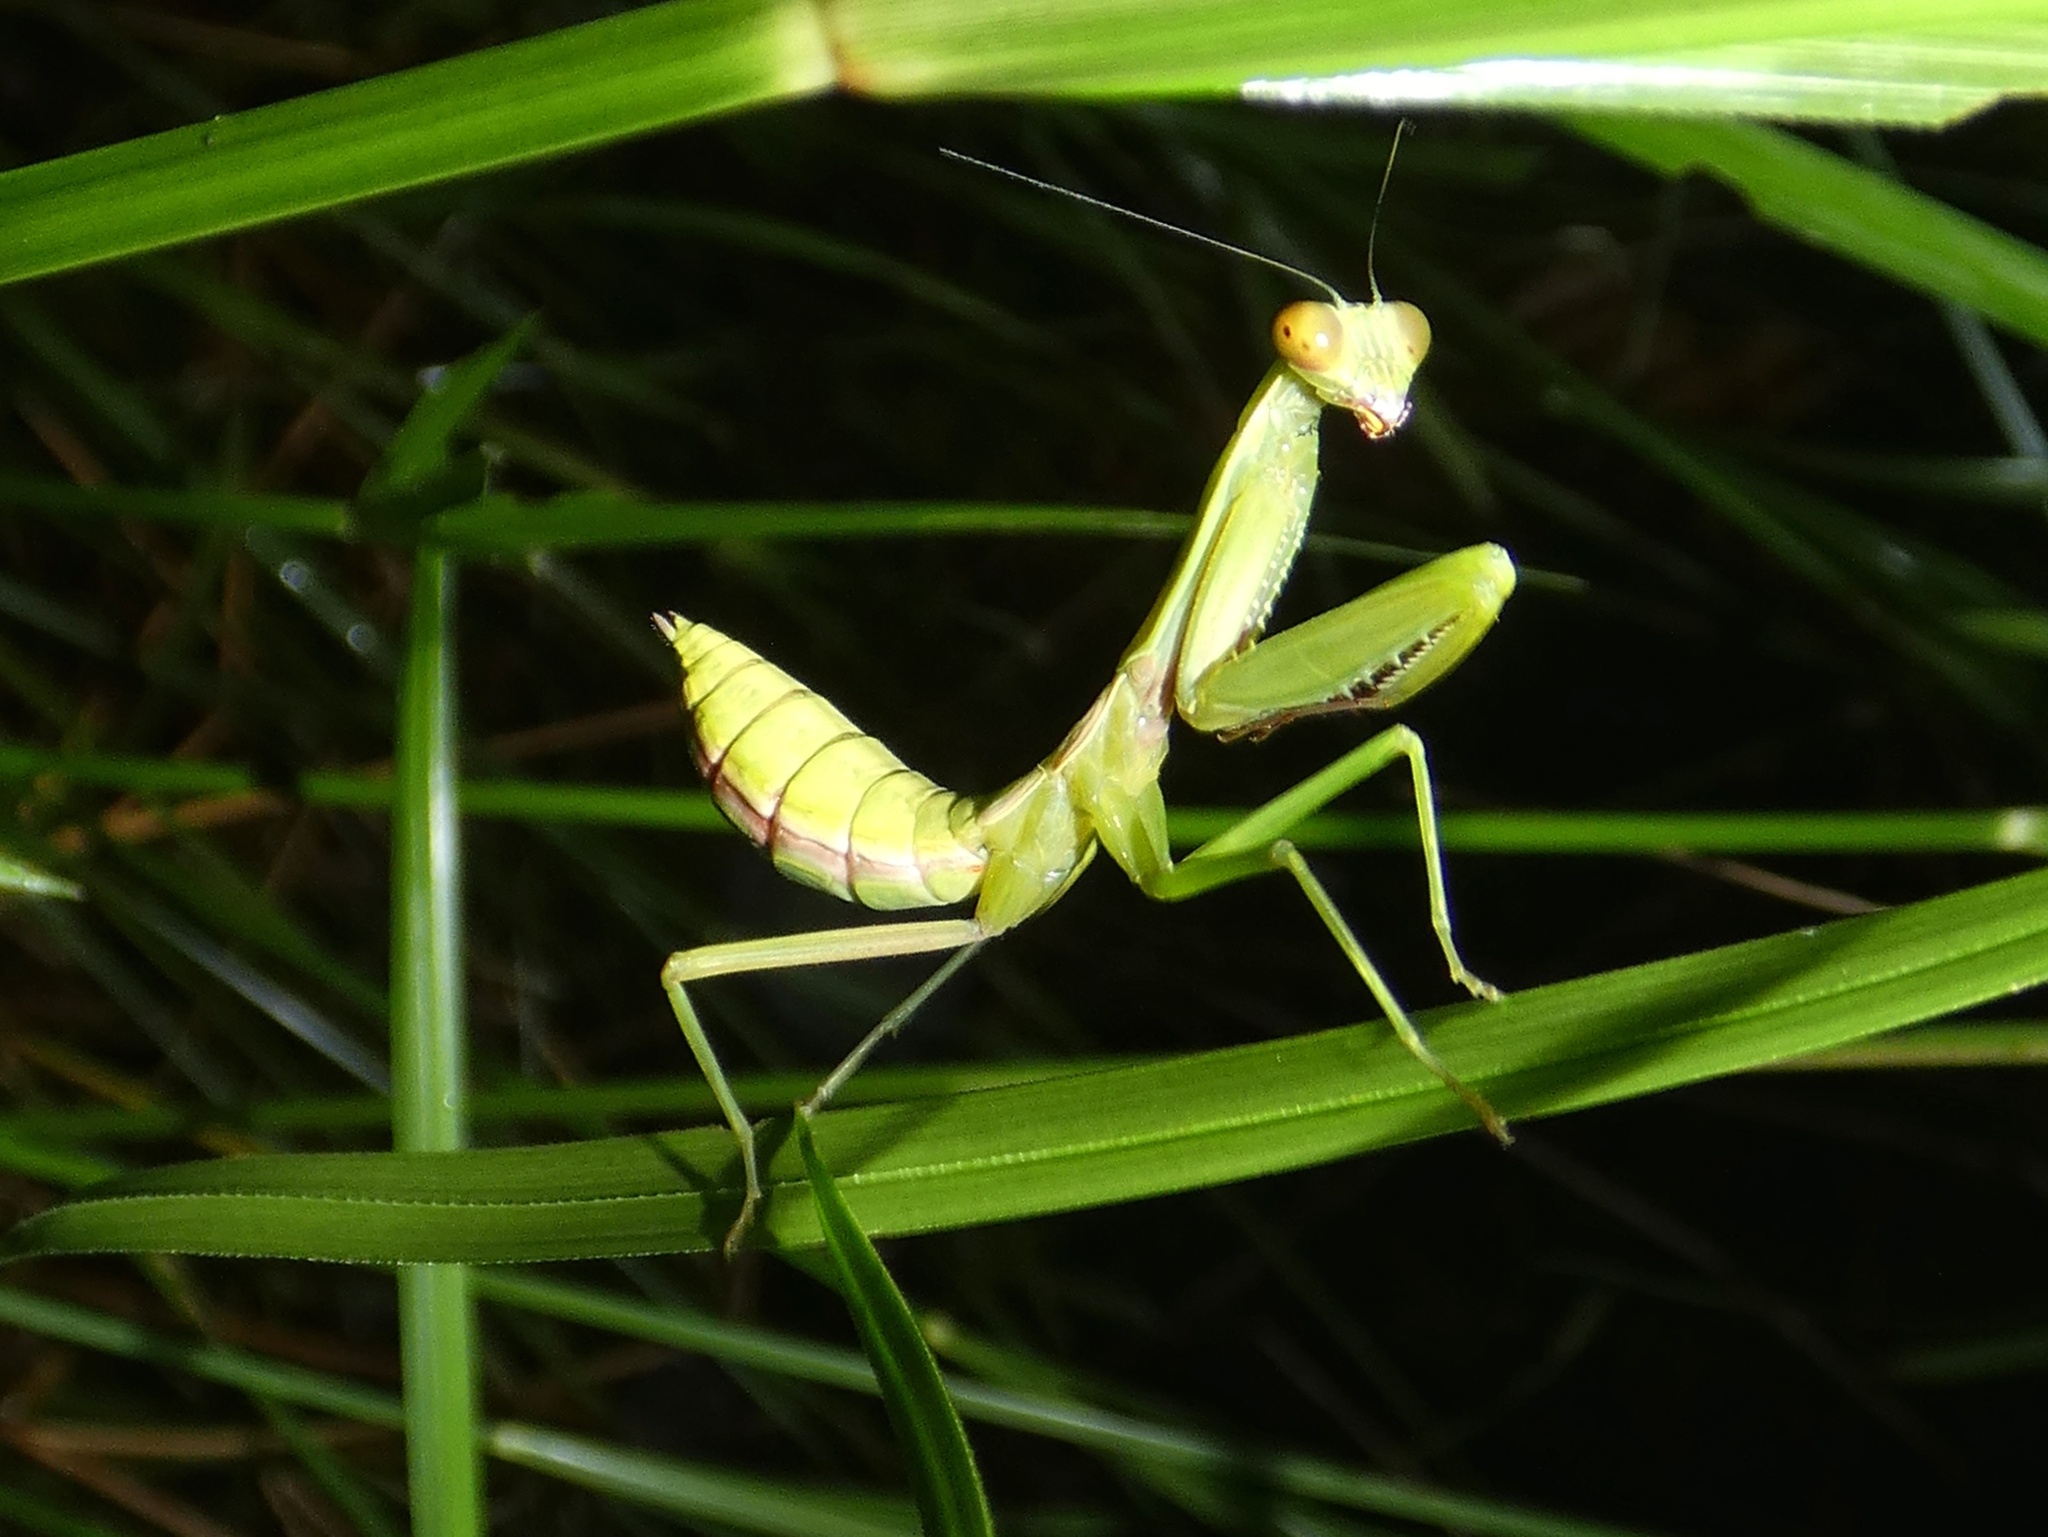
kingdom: Animalia
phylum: Arthropoda
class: Insecta
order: Mantodea
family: Mantidae
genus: Hierodula
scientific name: Hierodula majuscula
